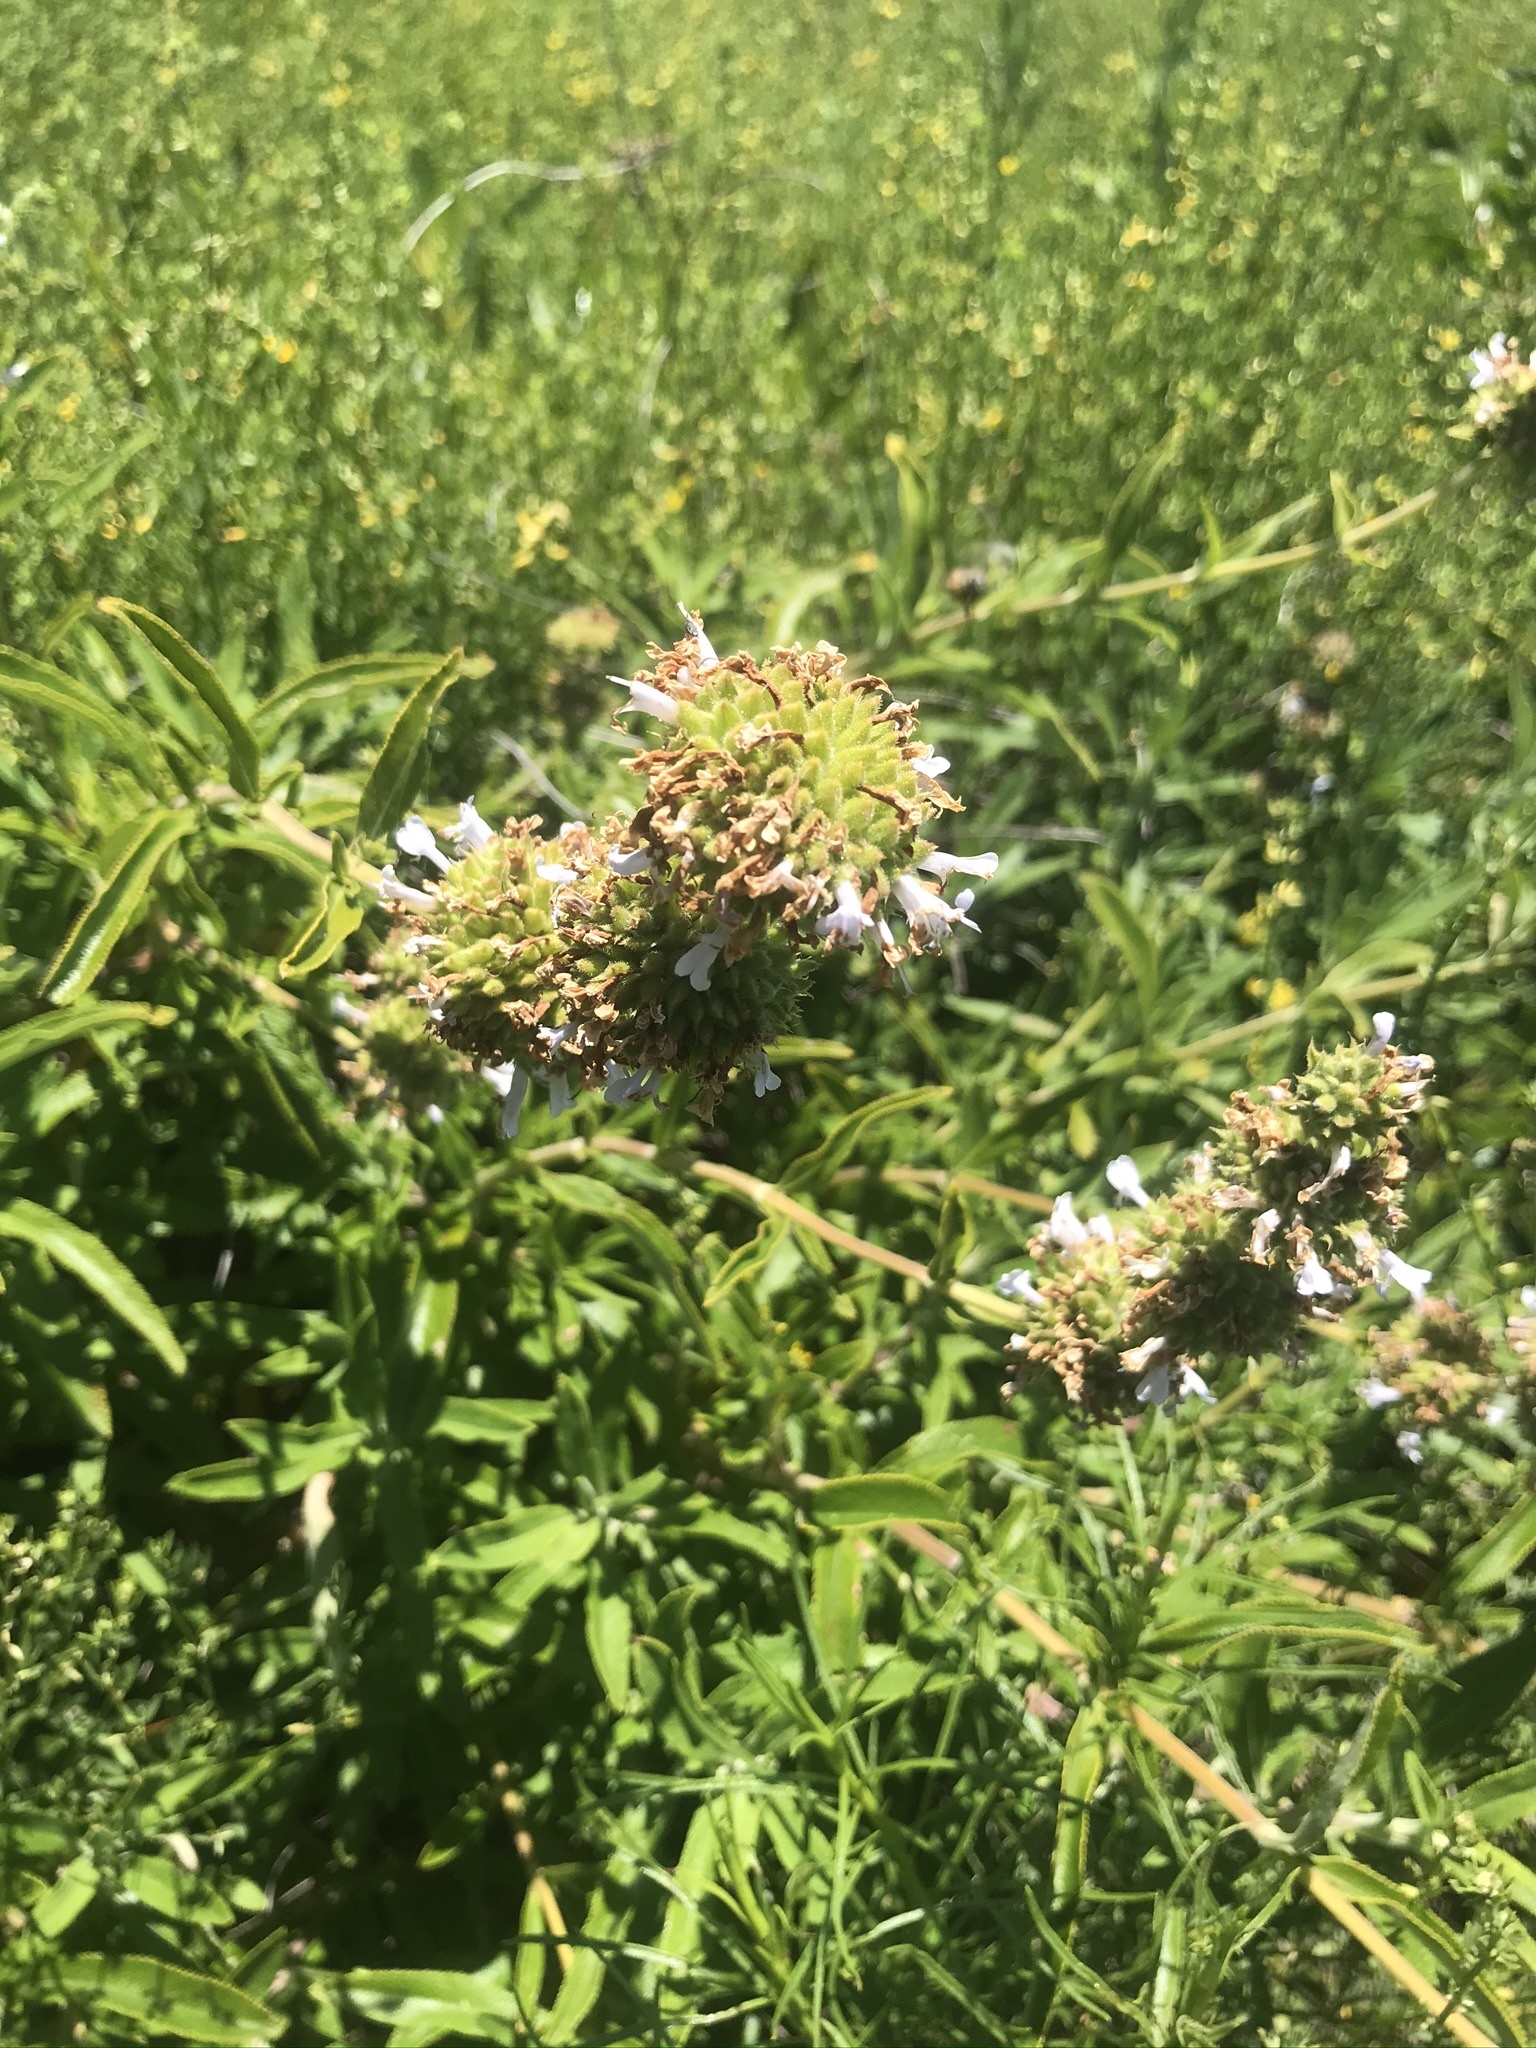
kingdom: Plantae
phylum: Tracheophyta
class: Magnoliopsida
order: Lamiales
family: Lamiaceae
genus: Salvia
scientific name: Salvia mellifera
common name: Black sage
